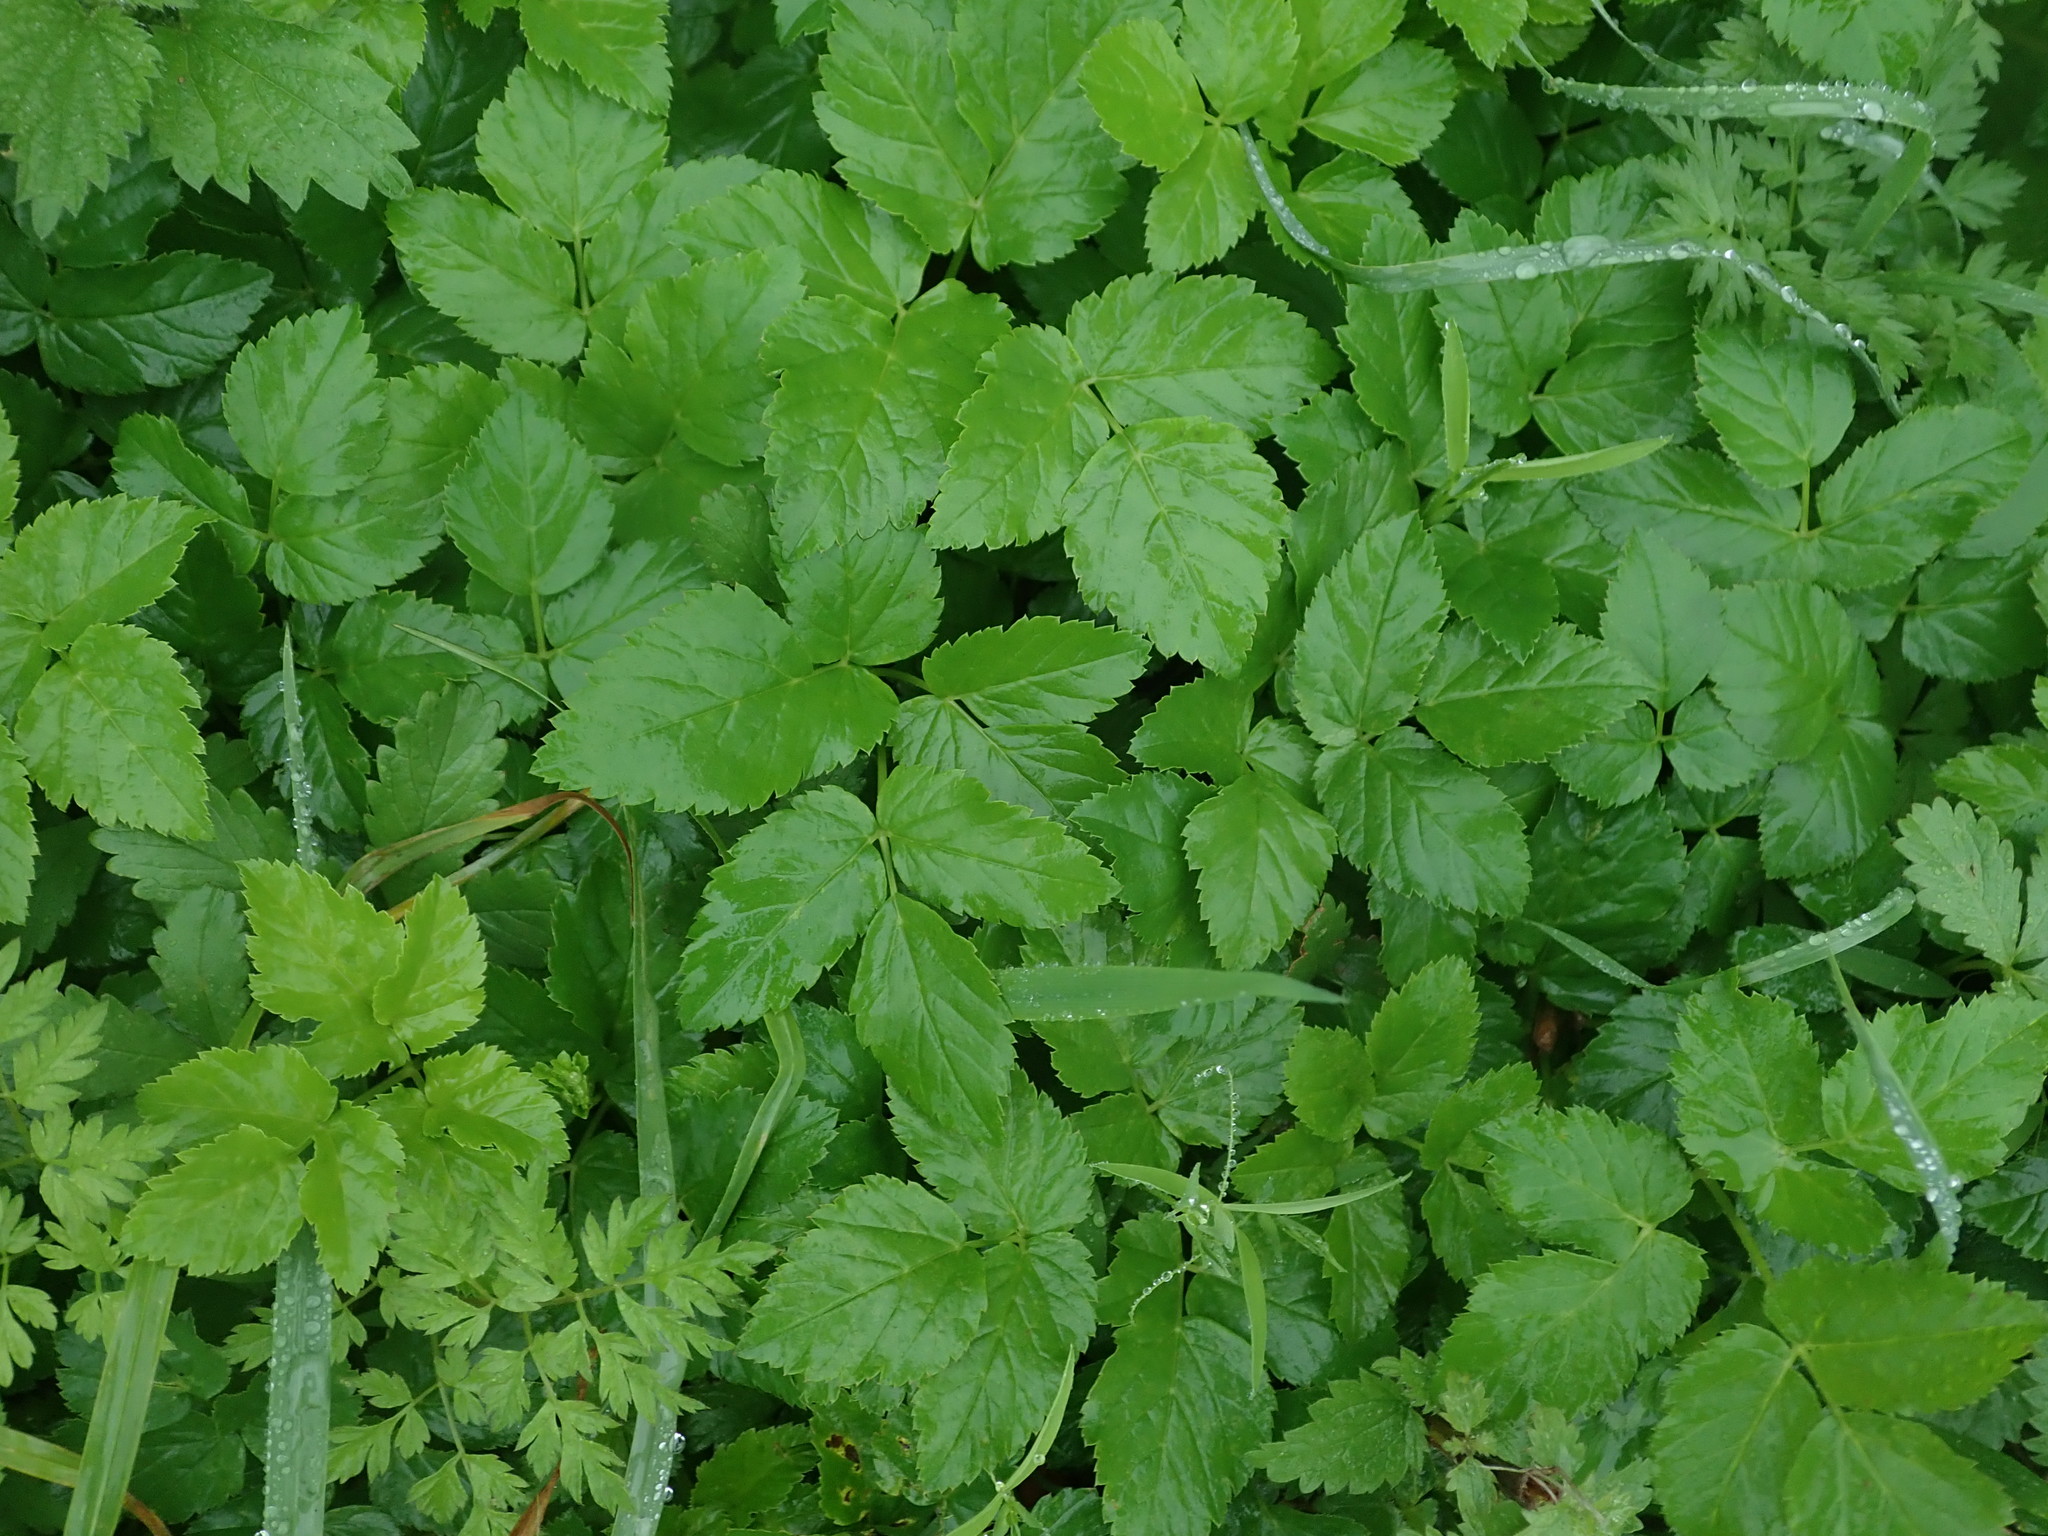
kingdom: Plantae
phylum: Tracheophyta
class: Magnoliopsida
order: Apiales
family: Apiaceae
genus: Aegopodium
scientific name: Aegopodium podagraria
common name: Ground-elder
